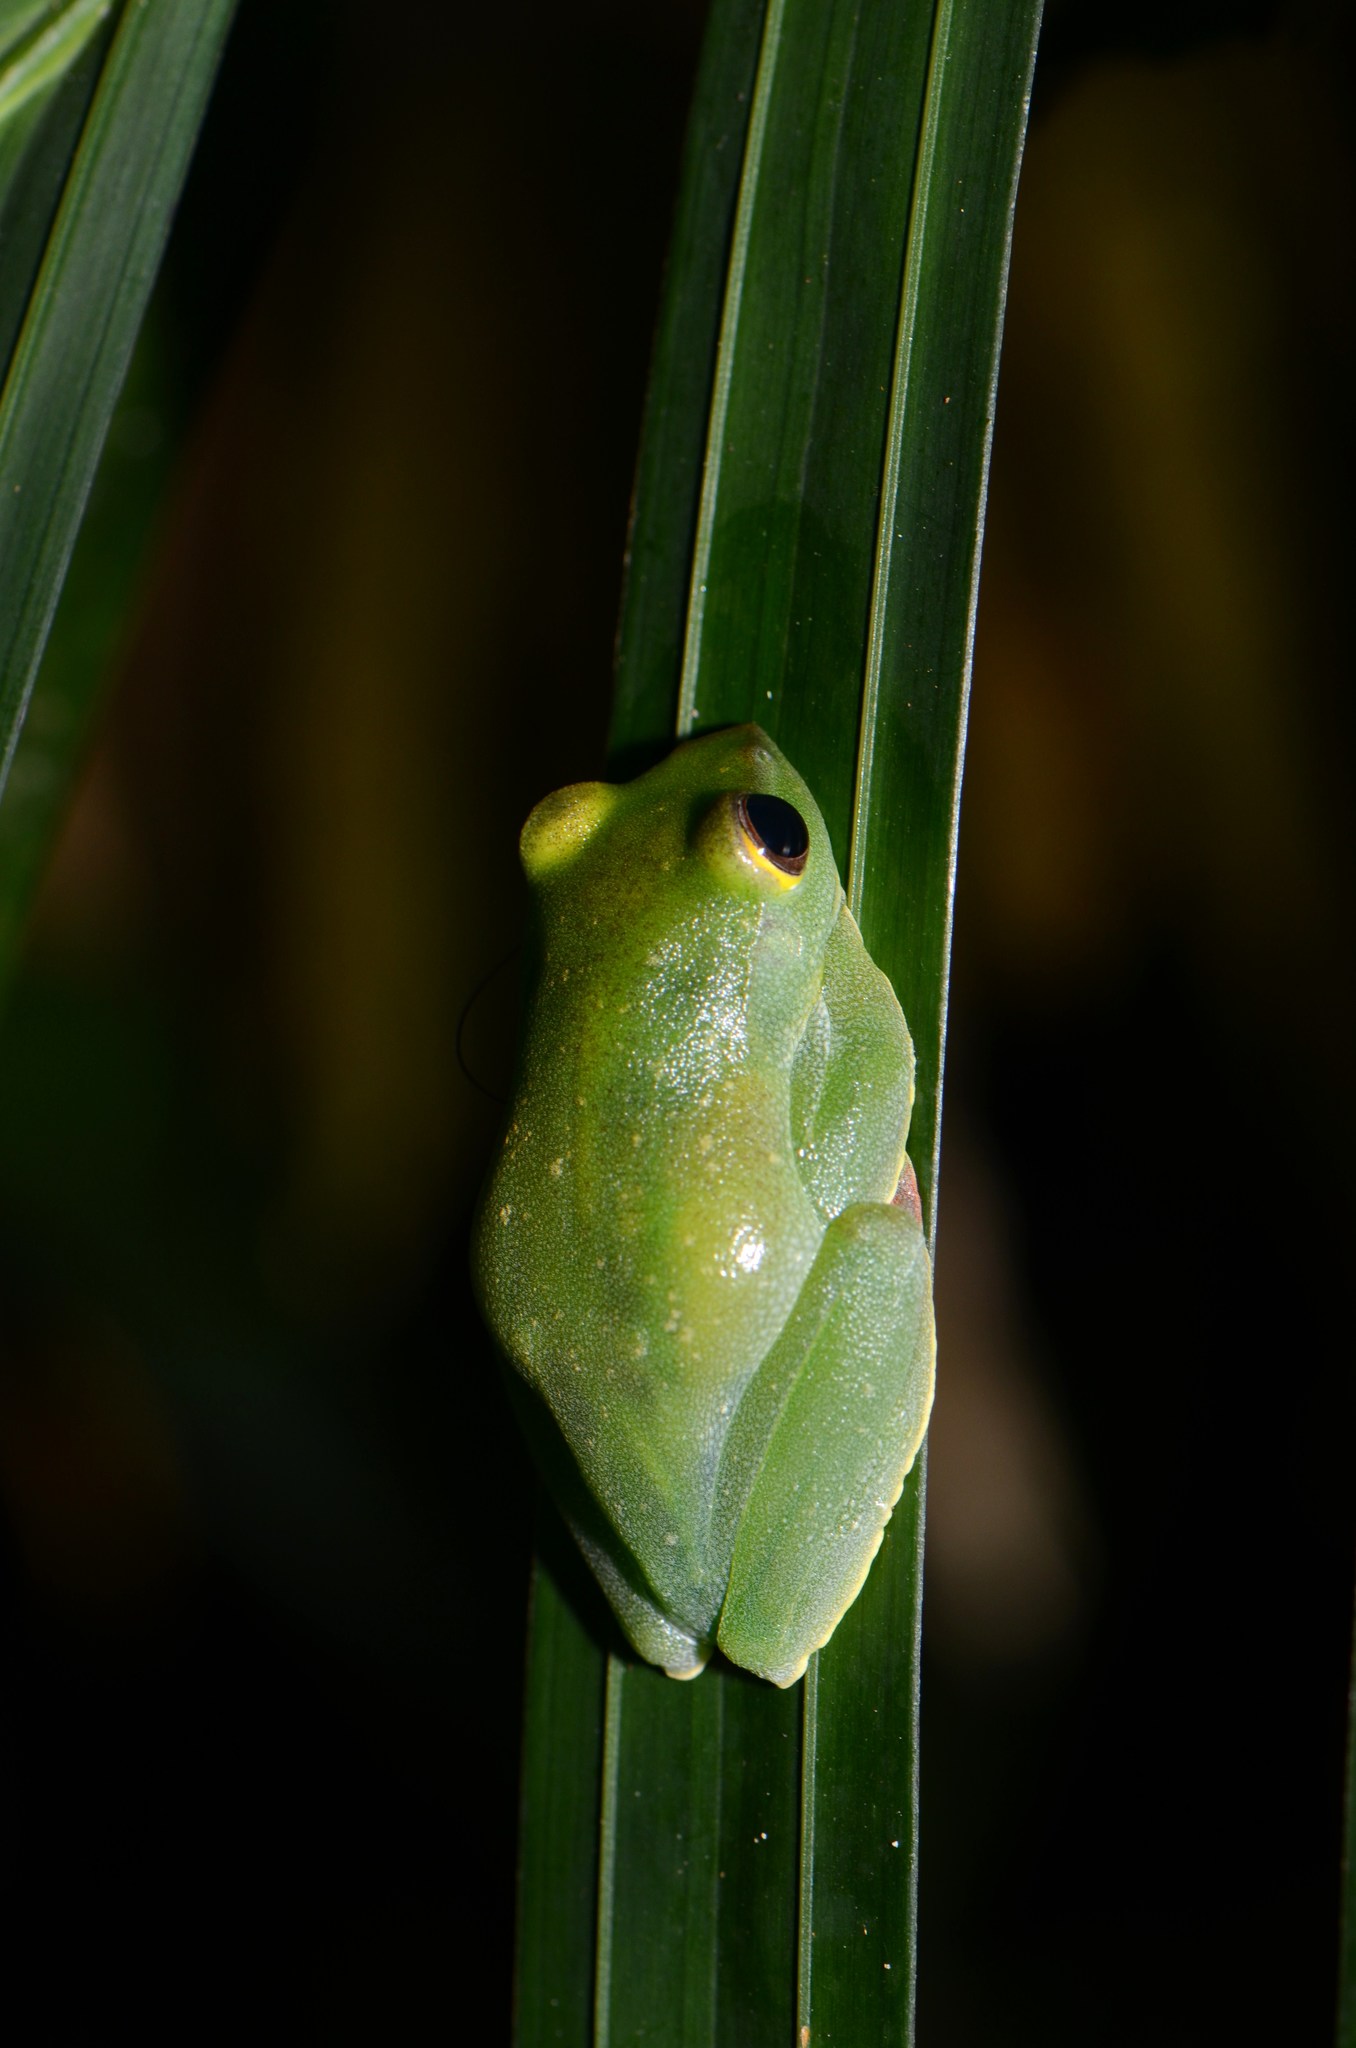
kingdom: Animalia
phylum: Chordata
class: Amphibia
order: Anura
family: Rhacophoridae
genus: Zhangixalus
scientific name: Zhangixalus prominanus
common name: Jor flying frog
